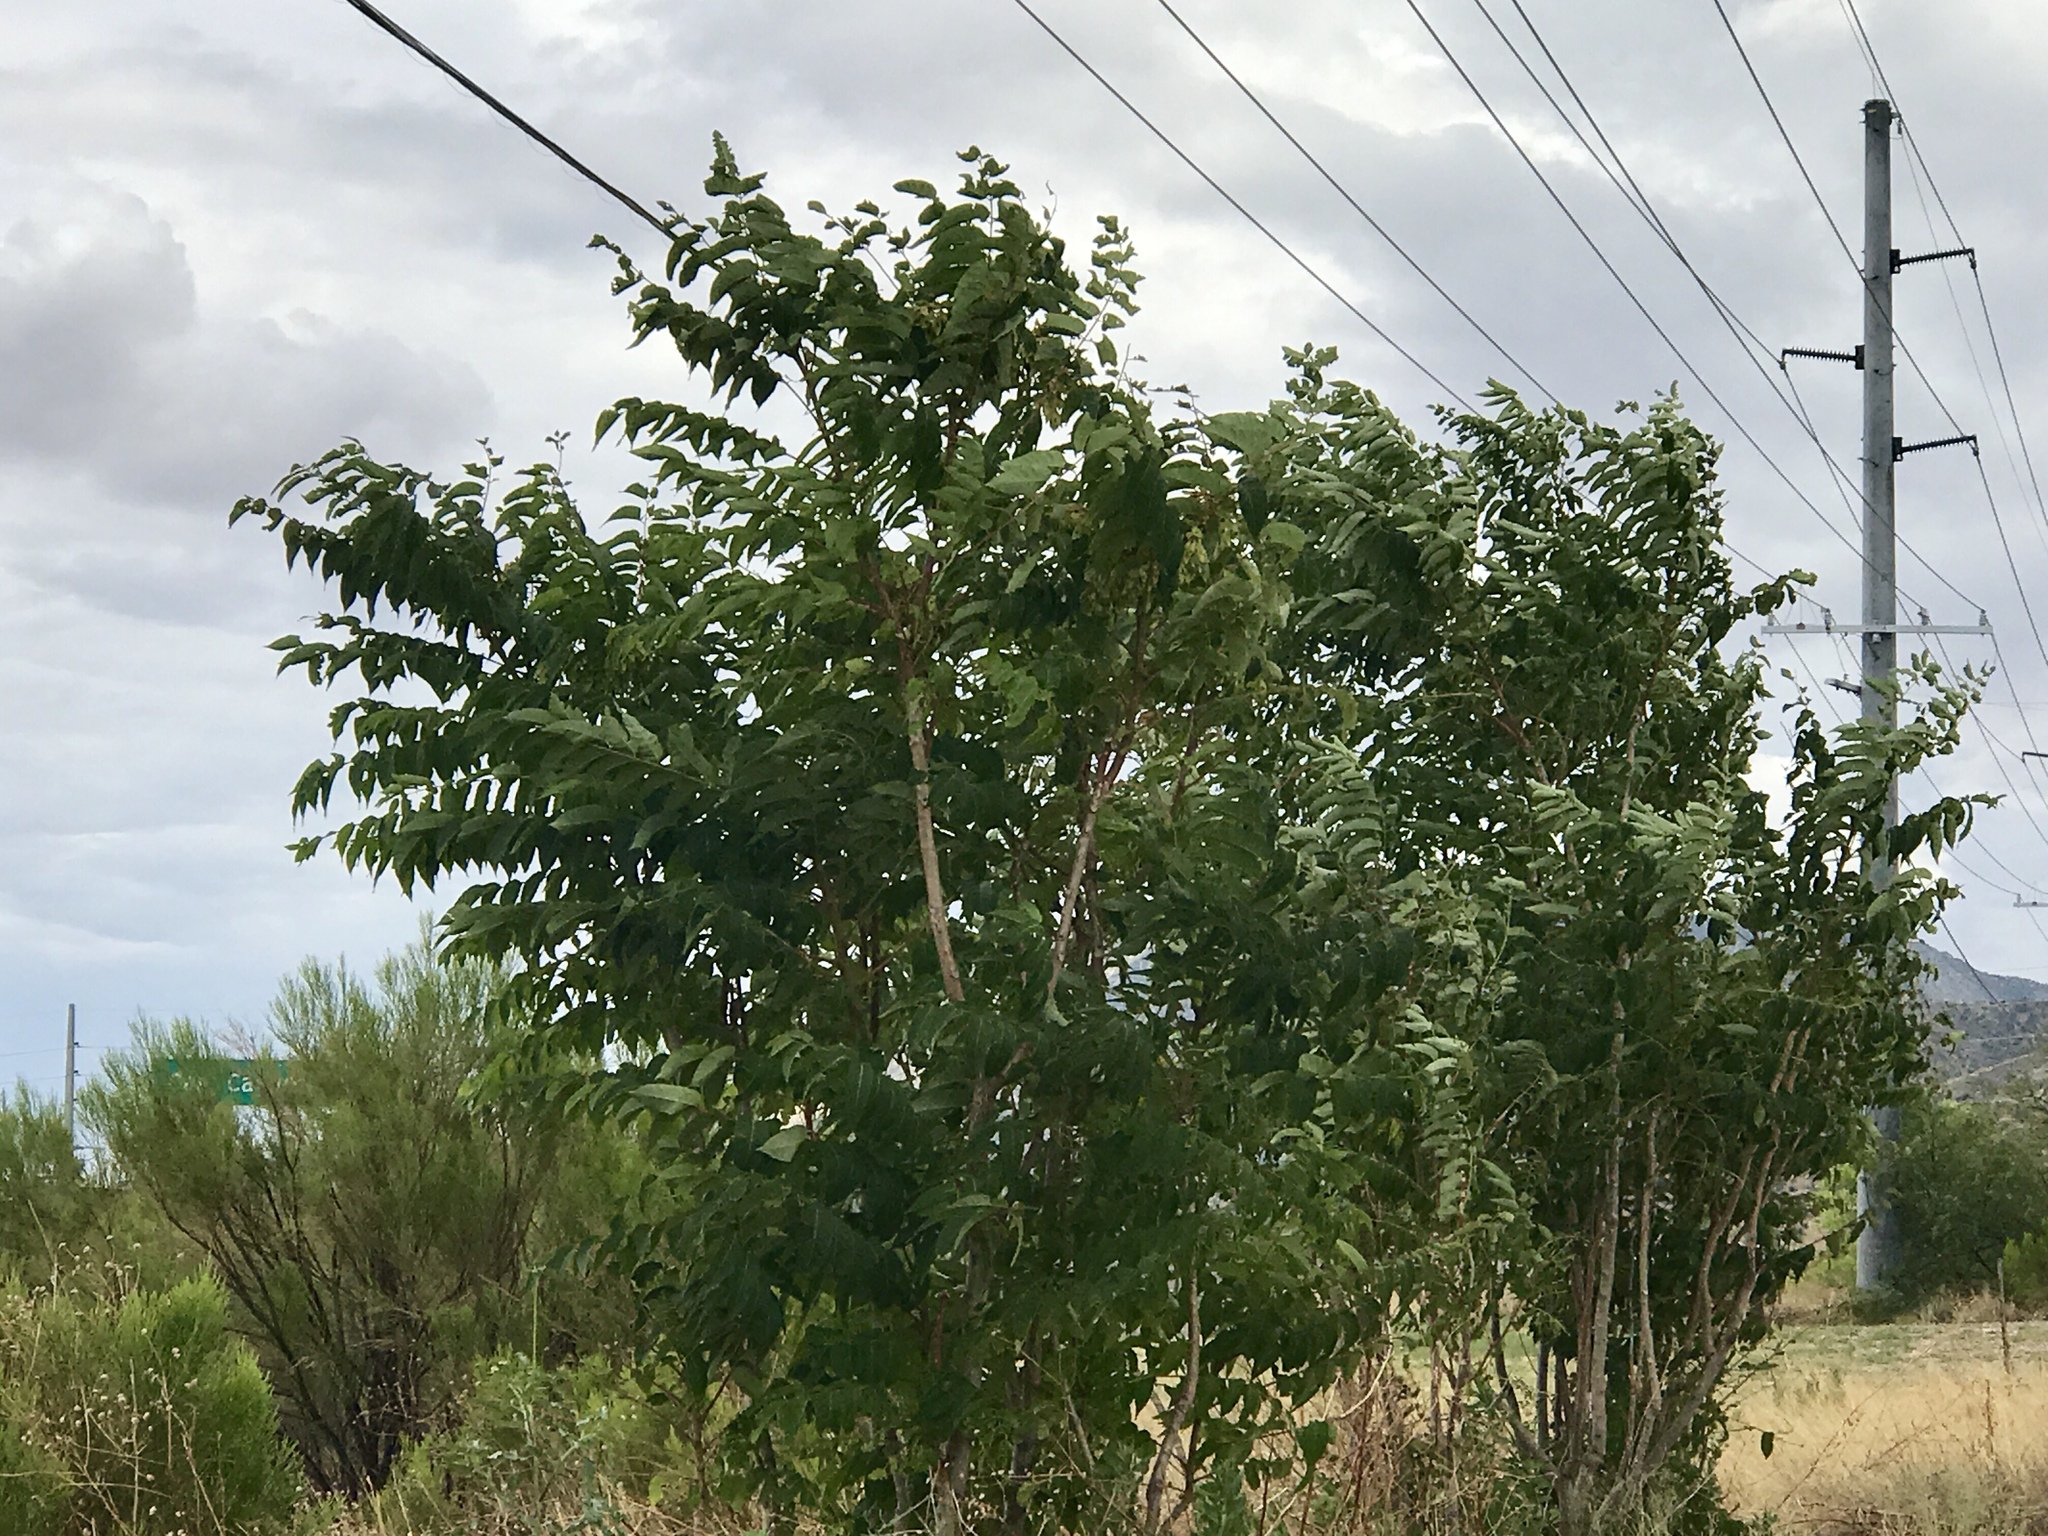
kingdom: Plantae
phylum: Tracheophyta
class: Magnoliopsida
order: Sapindales
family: Simaroubaceae
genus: Ailanthus
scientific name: Ailanthus altissima
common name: Tree-of-heaven
